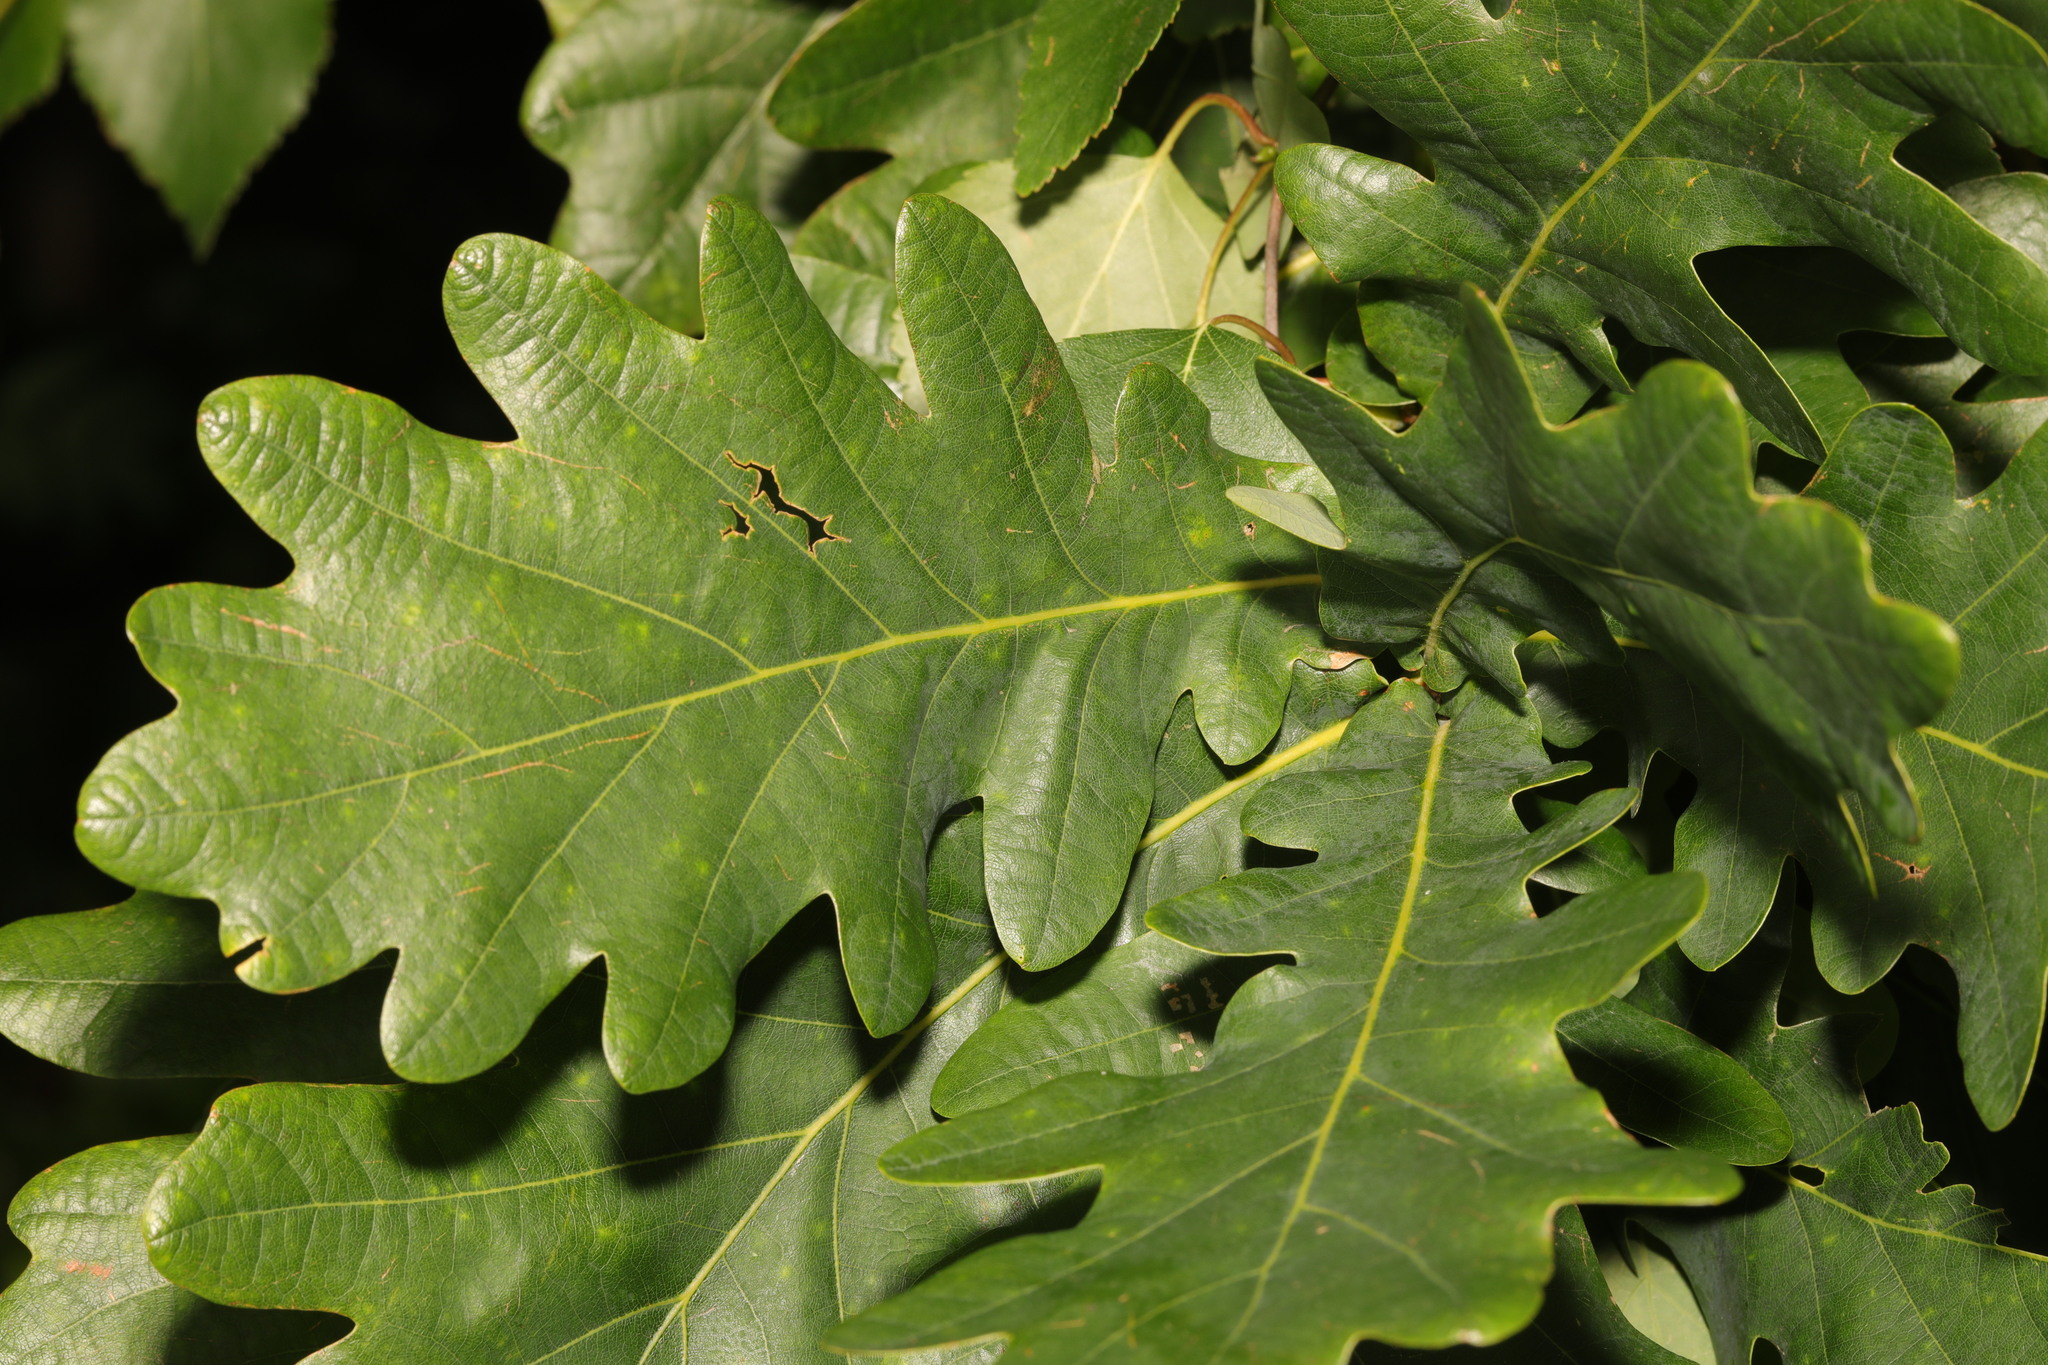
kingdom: Plantae
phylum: Tracheophyta
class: Magnoliopsida
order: Fagales
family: Fagaceae
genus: Quercus
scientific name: Quercus robur
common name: Pedunculate oak
